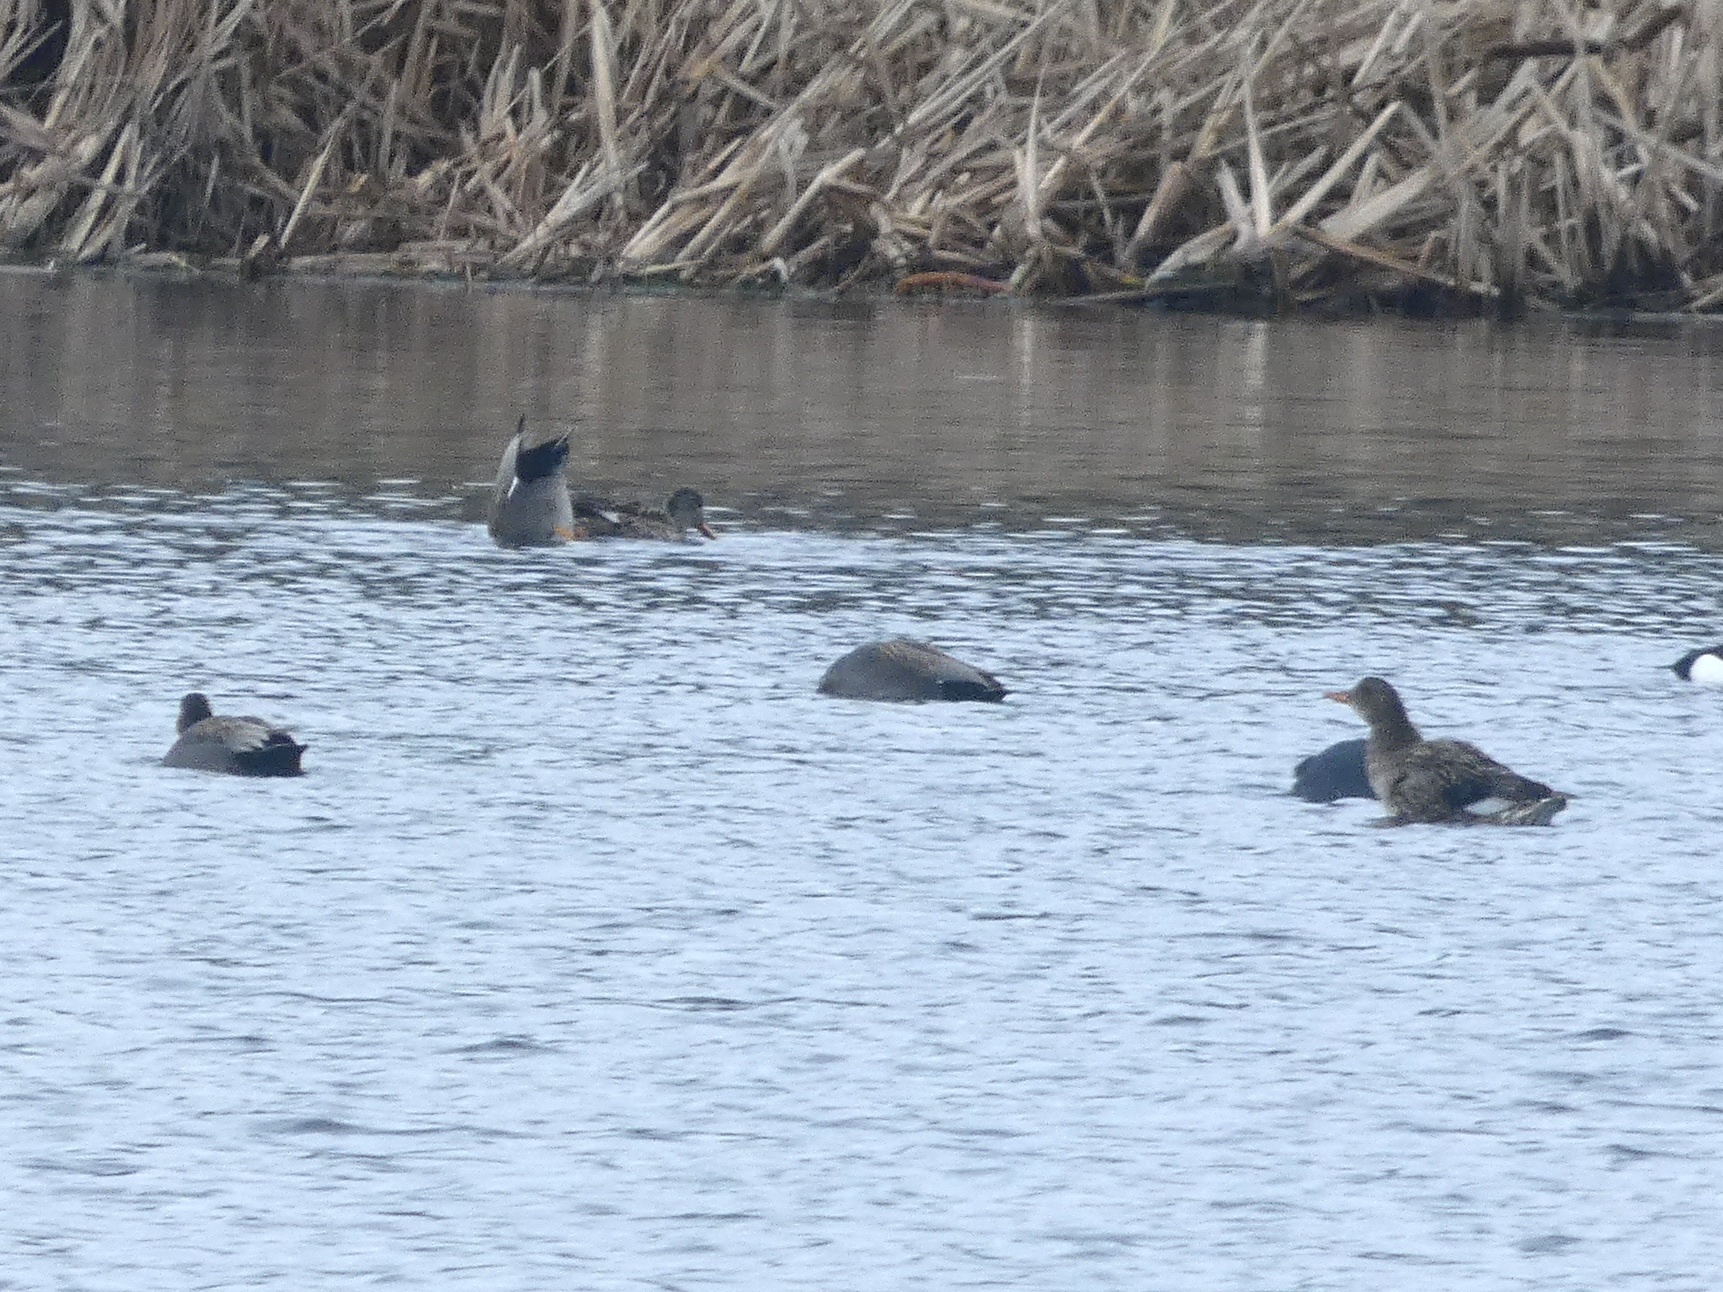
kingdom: Animalia
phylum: Chordata
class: Aves
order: Anseriformes
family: Anatidae
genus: Mareca
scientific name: Mareca strepera
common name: Gadwall
